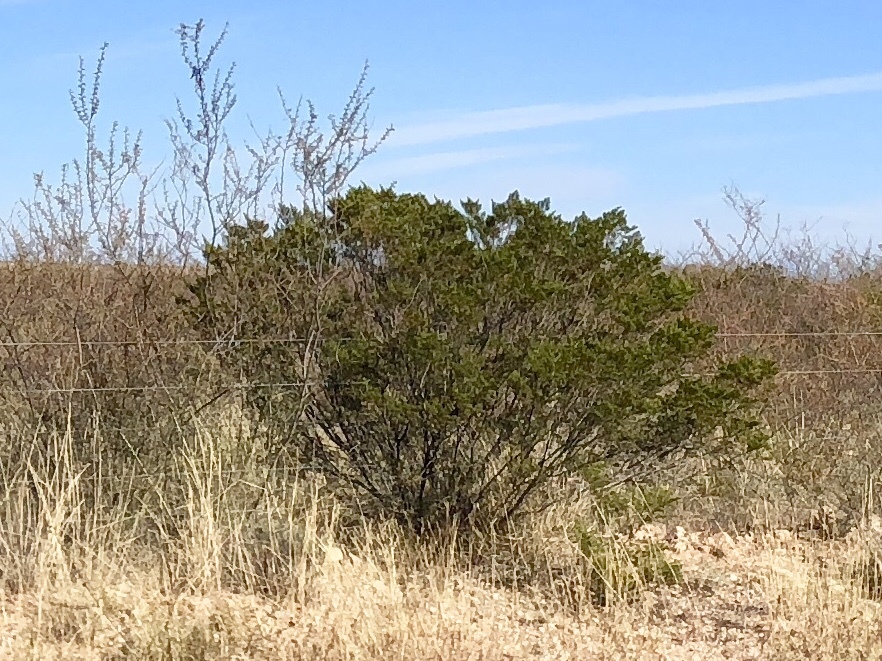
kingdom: Plantae
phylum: Tracheophyta
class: Magnoliopsida
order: Zygophyllales
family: Zygophyllaceae
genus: Larrea
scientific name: Larrea tridentata
